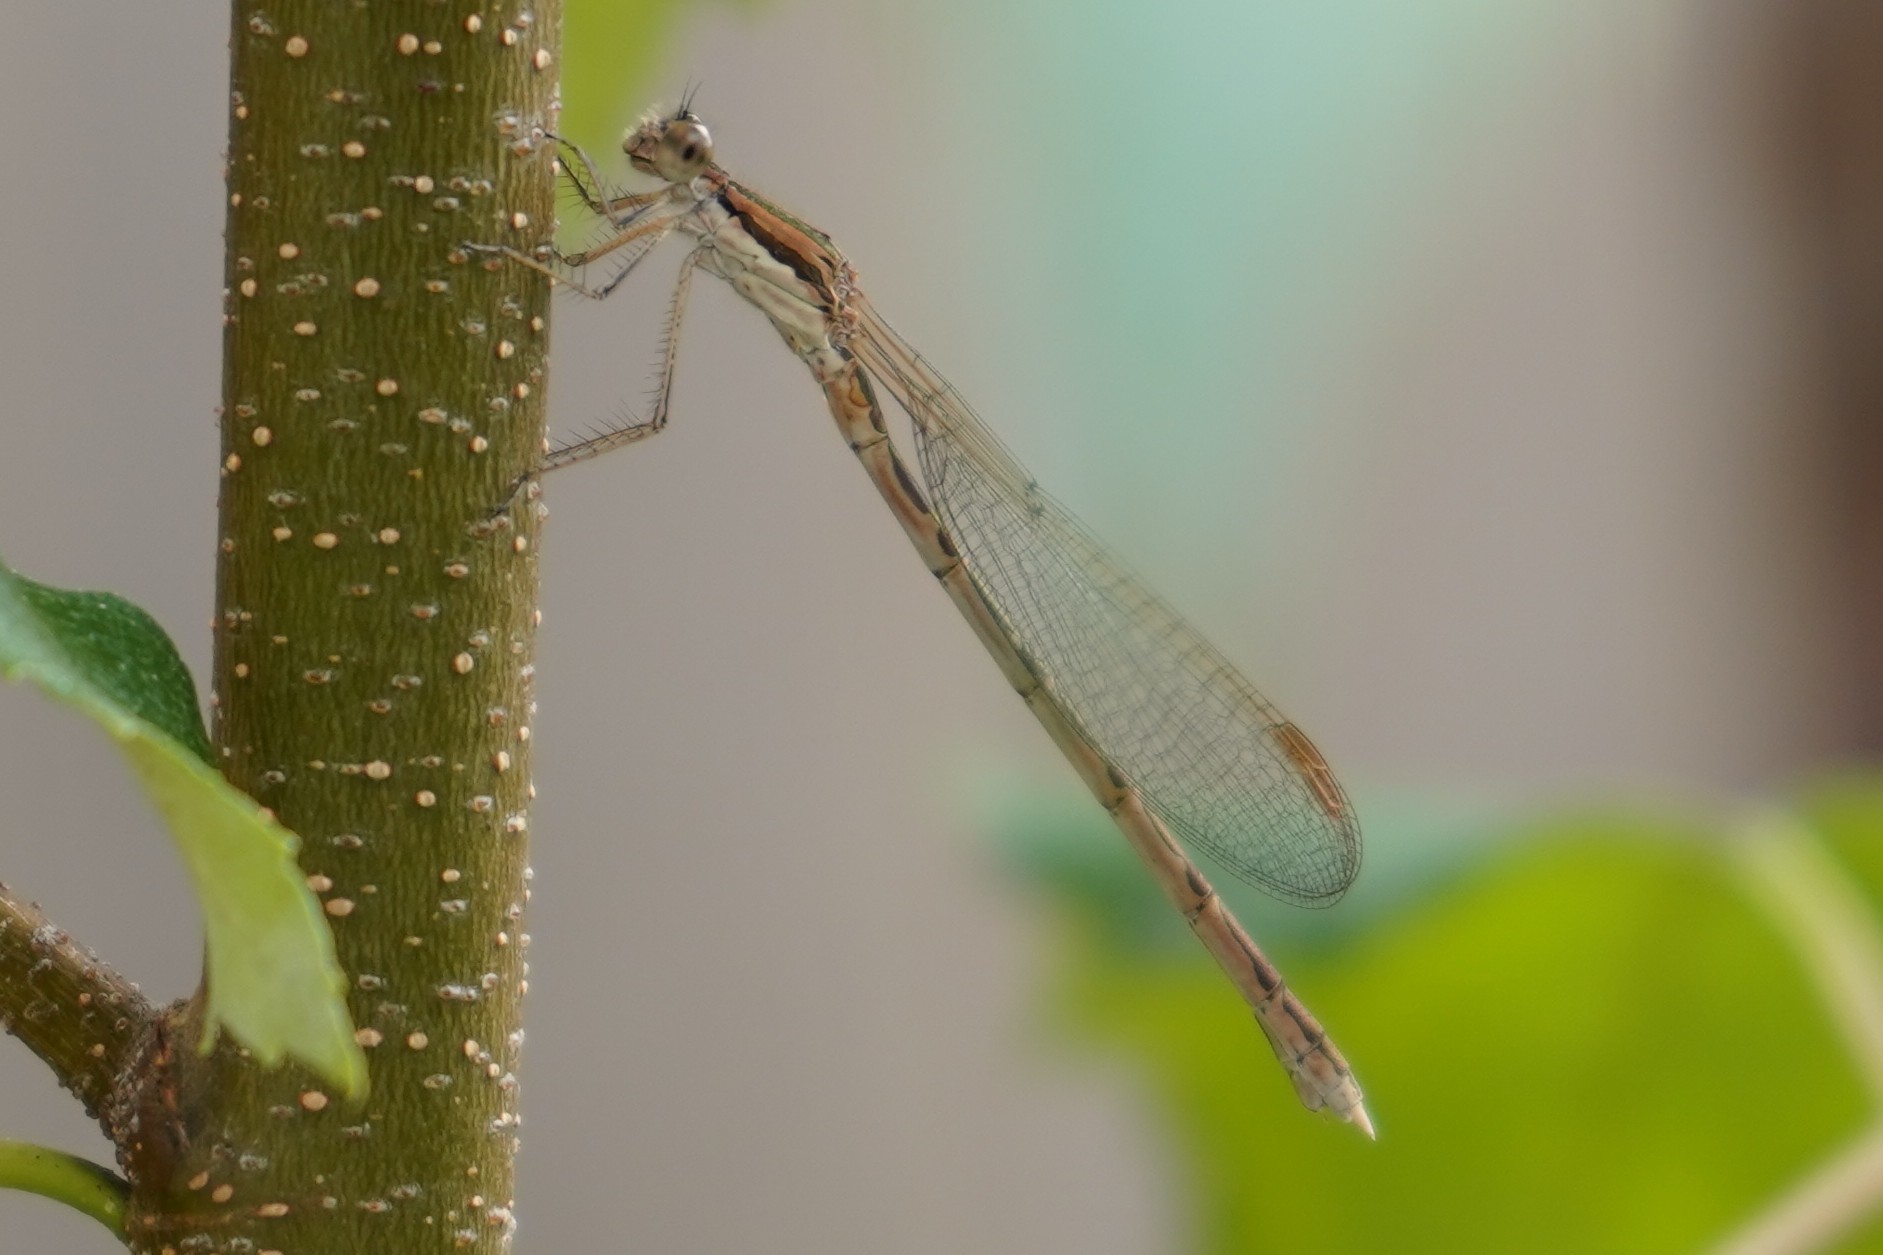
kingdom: Animalia
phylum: Arthropoda
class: Insecta
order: Odonata
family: Lestidae
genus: Sympecma
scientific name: Sympecma fusca
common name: Common winter damsel
